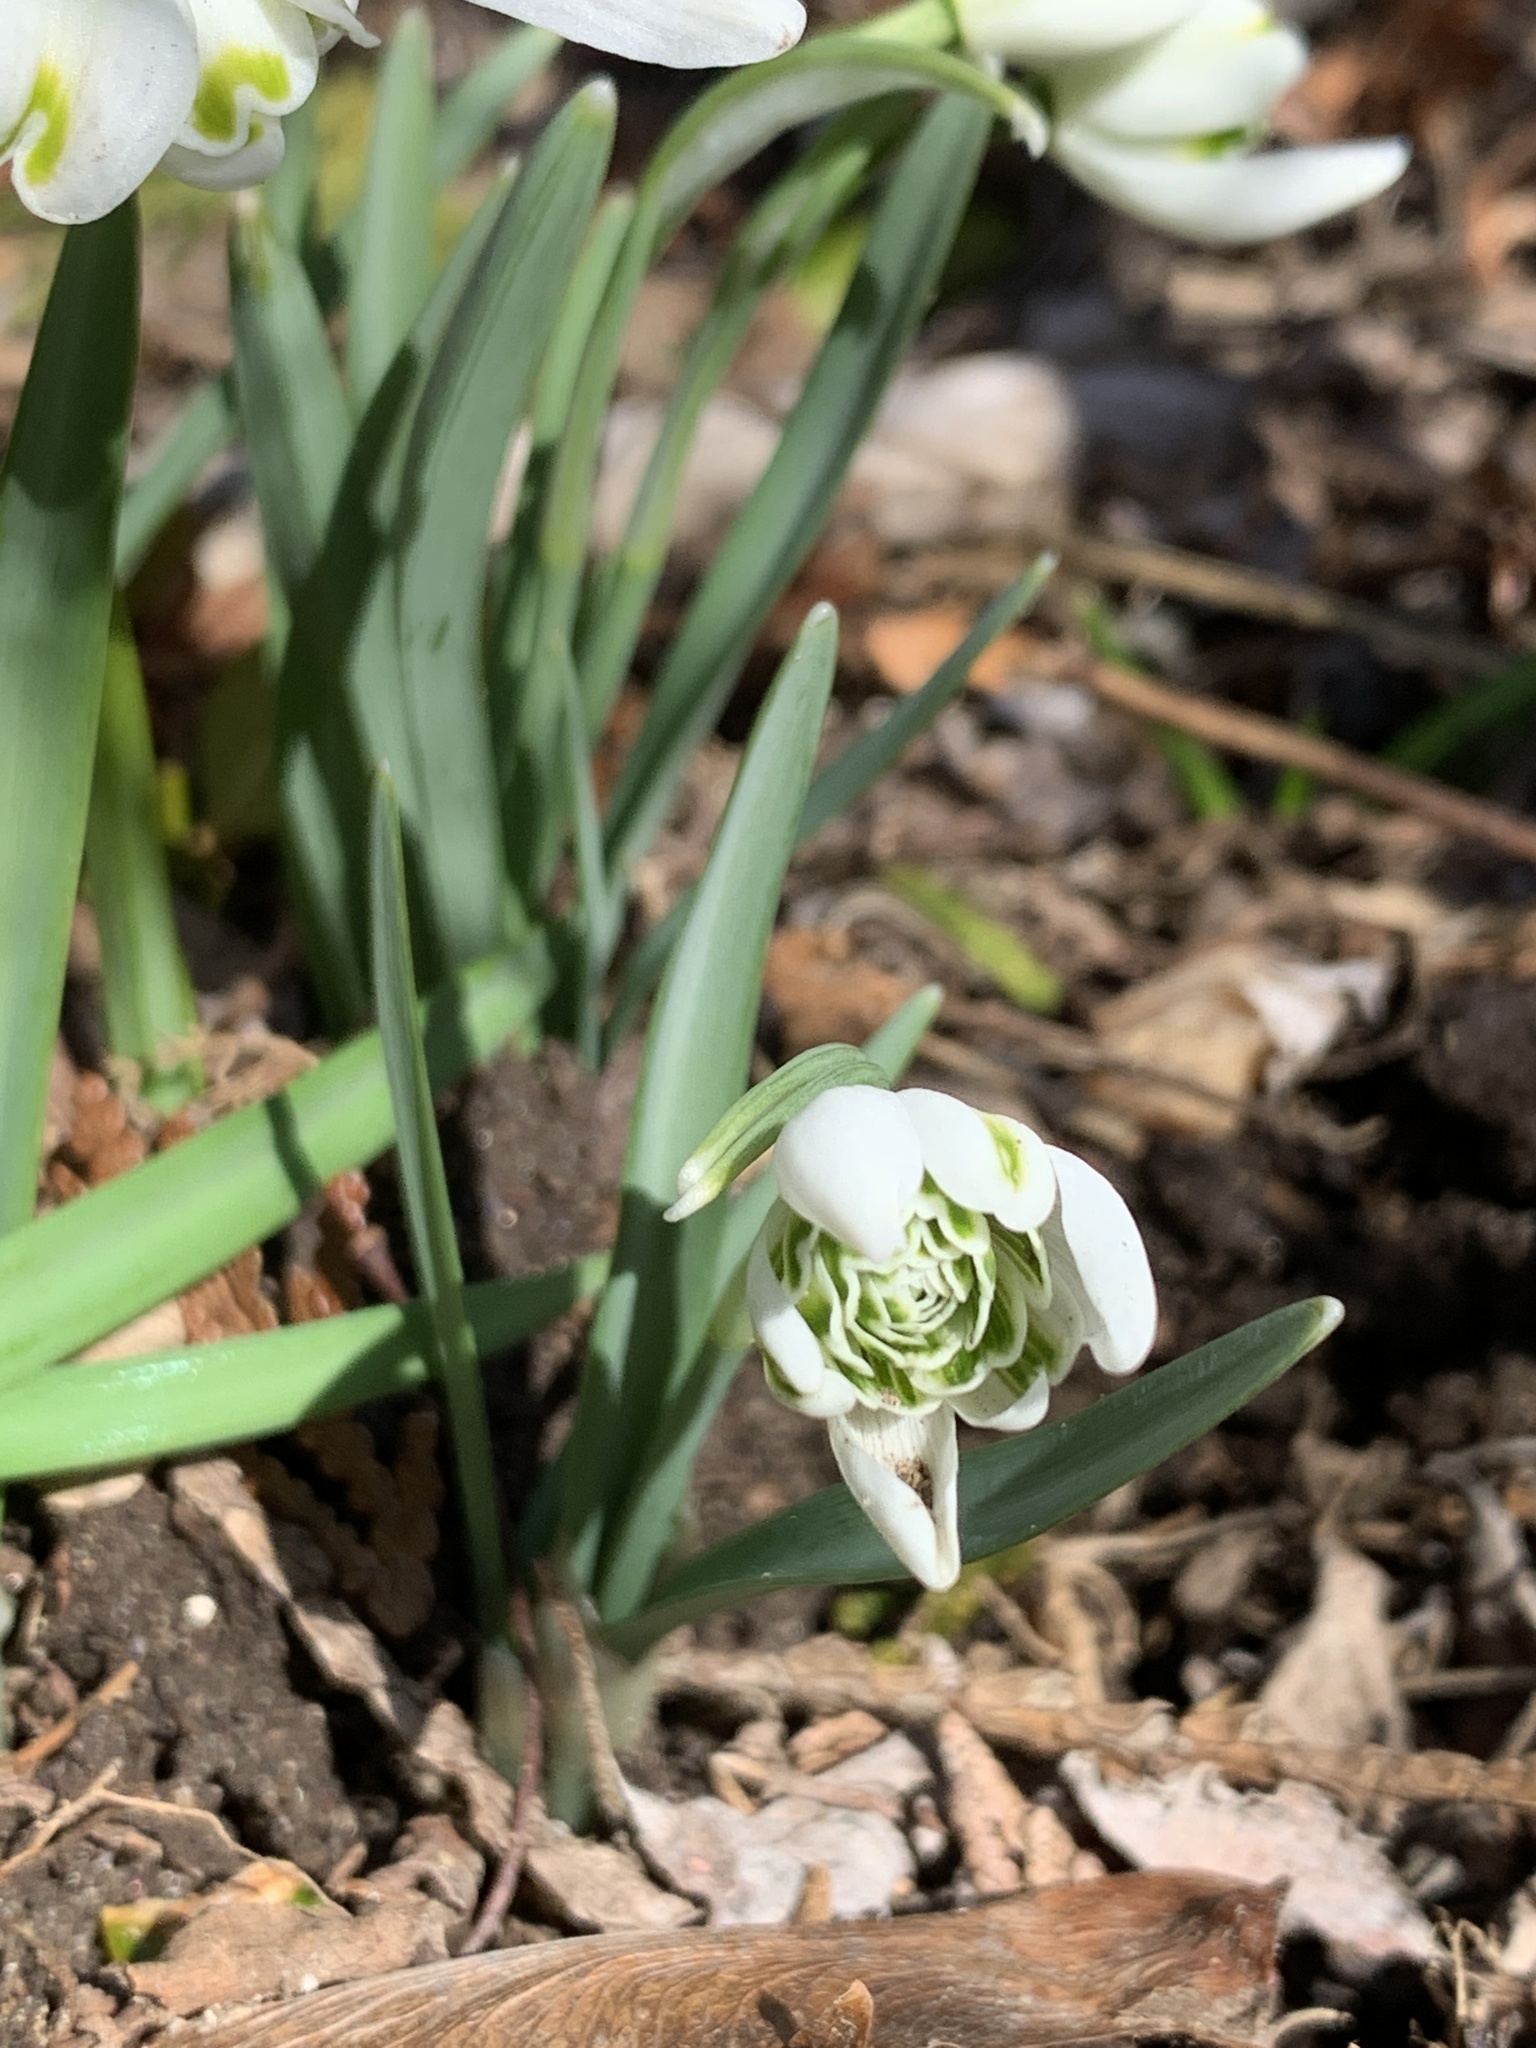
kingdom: Plantae
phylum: Tracheophyta
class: Liliopsida
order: Asparagales
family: Amaryllidaceae
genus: Galanthus
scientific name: Galanthus nivalis
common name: Snowdrop
